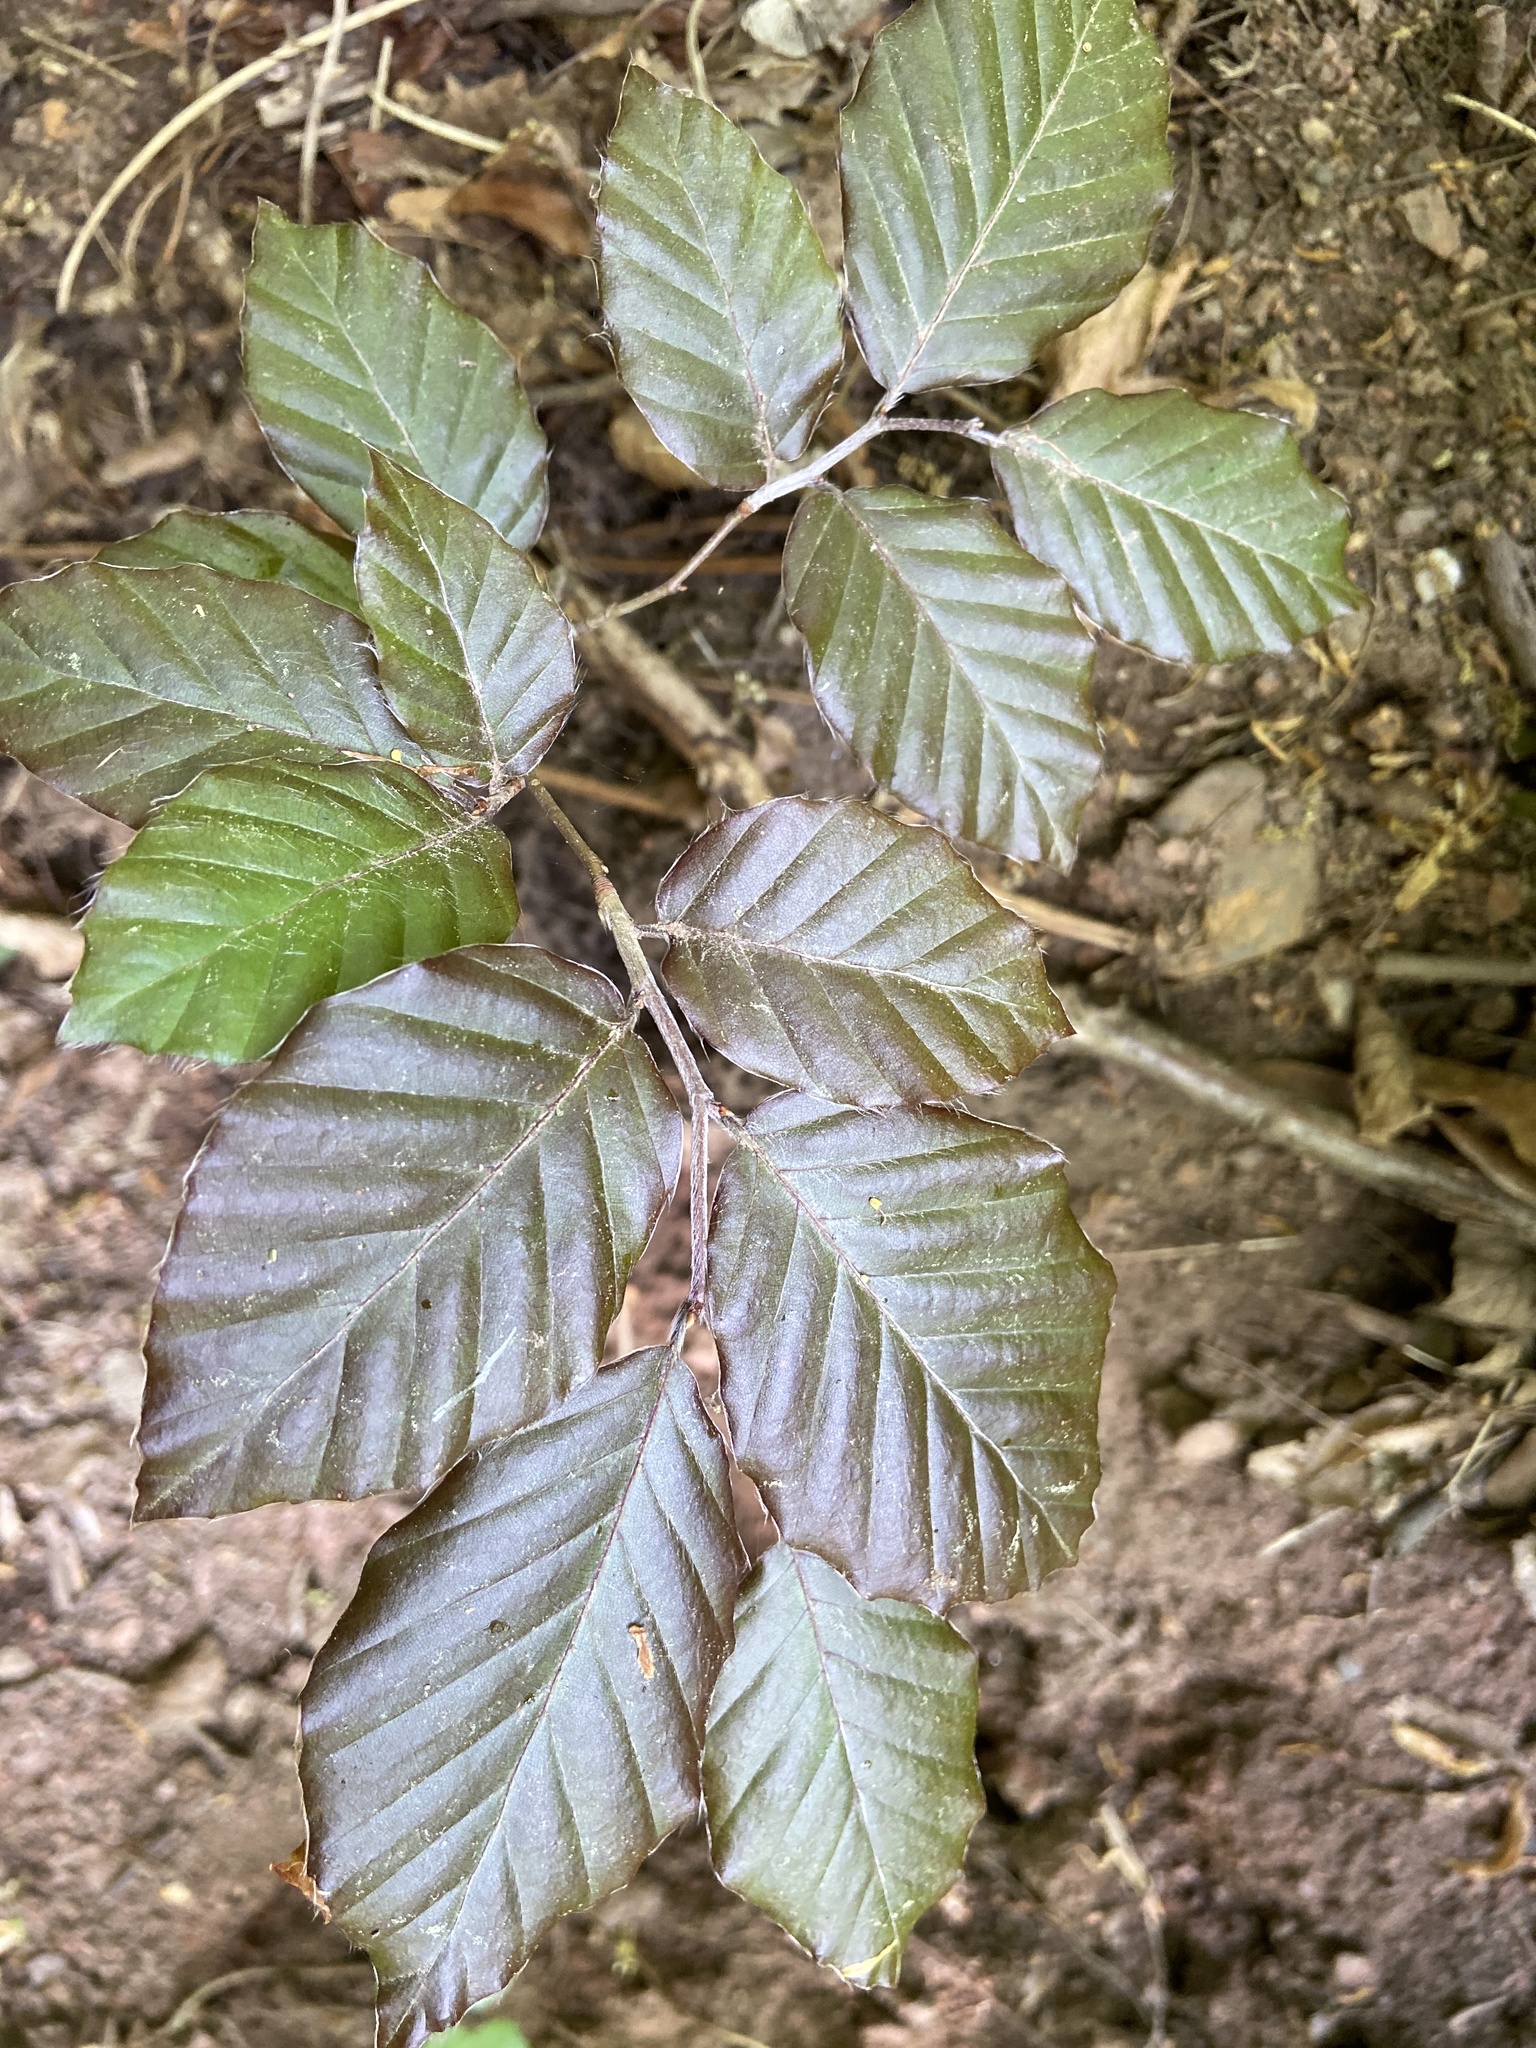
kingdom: Plantae
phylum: Tracheophyta
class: Magnoliopsida
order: Fagales
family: Fagaceae
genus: Fagus
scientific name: Fagus sylvatica
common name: Beech
